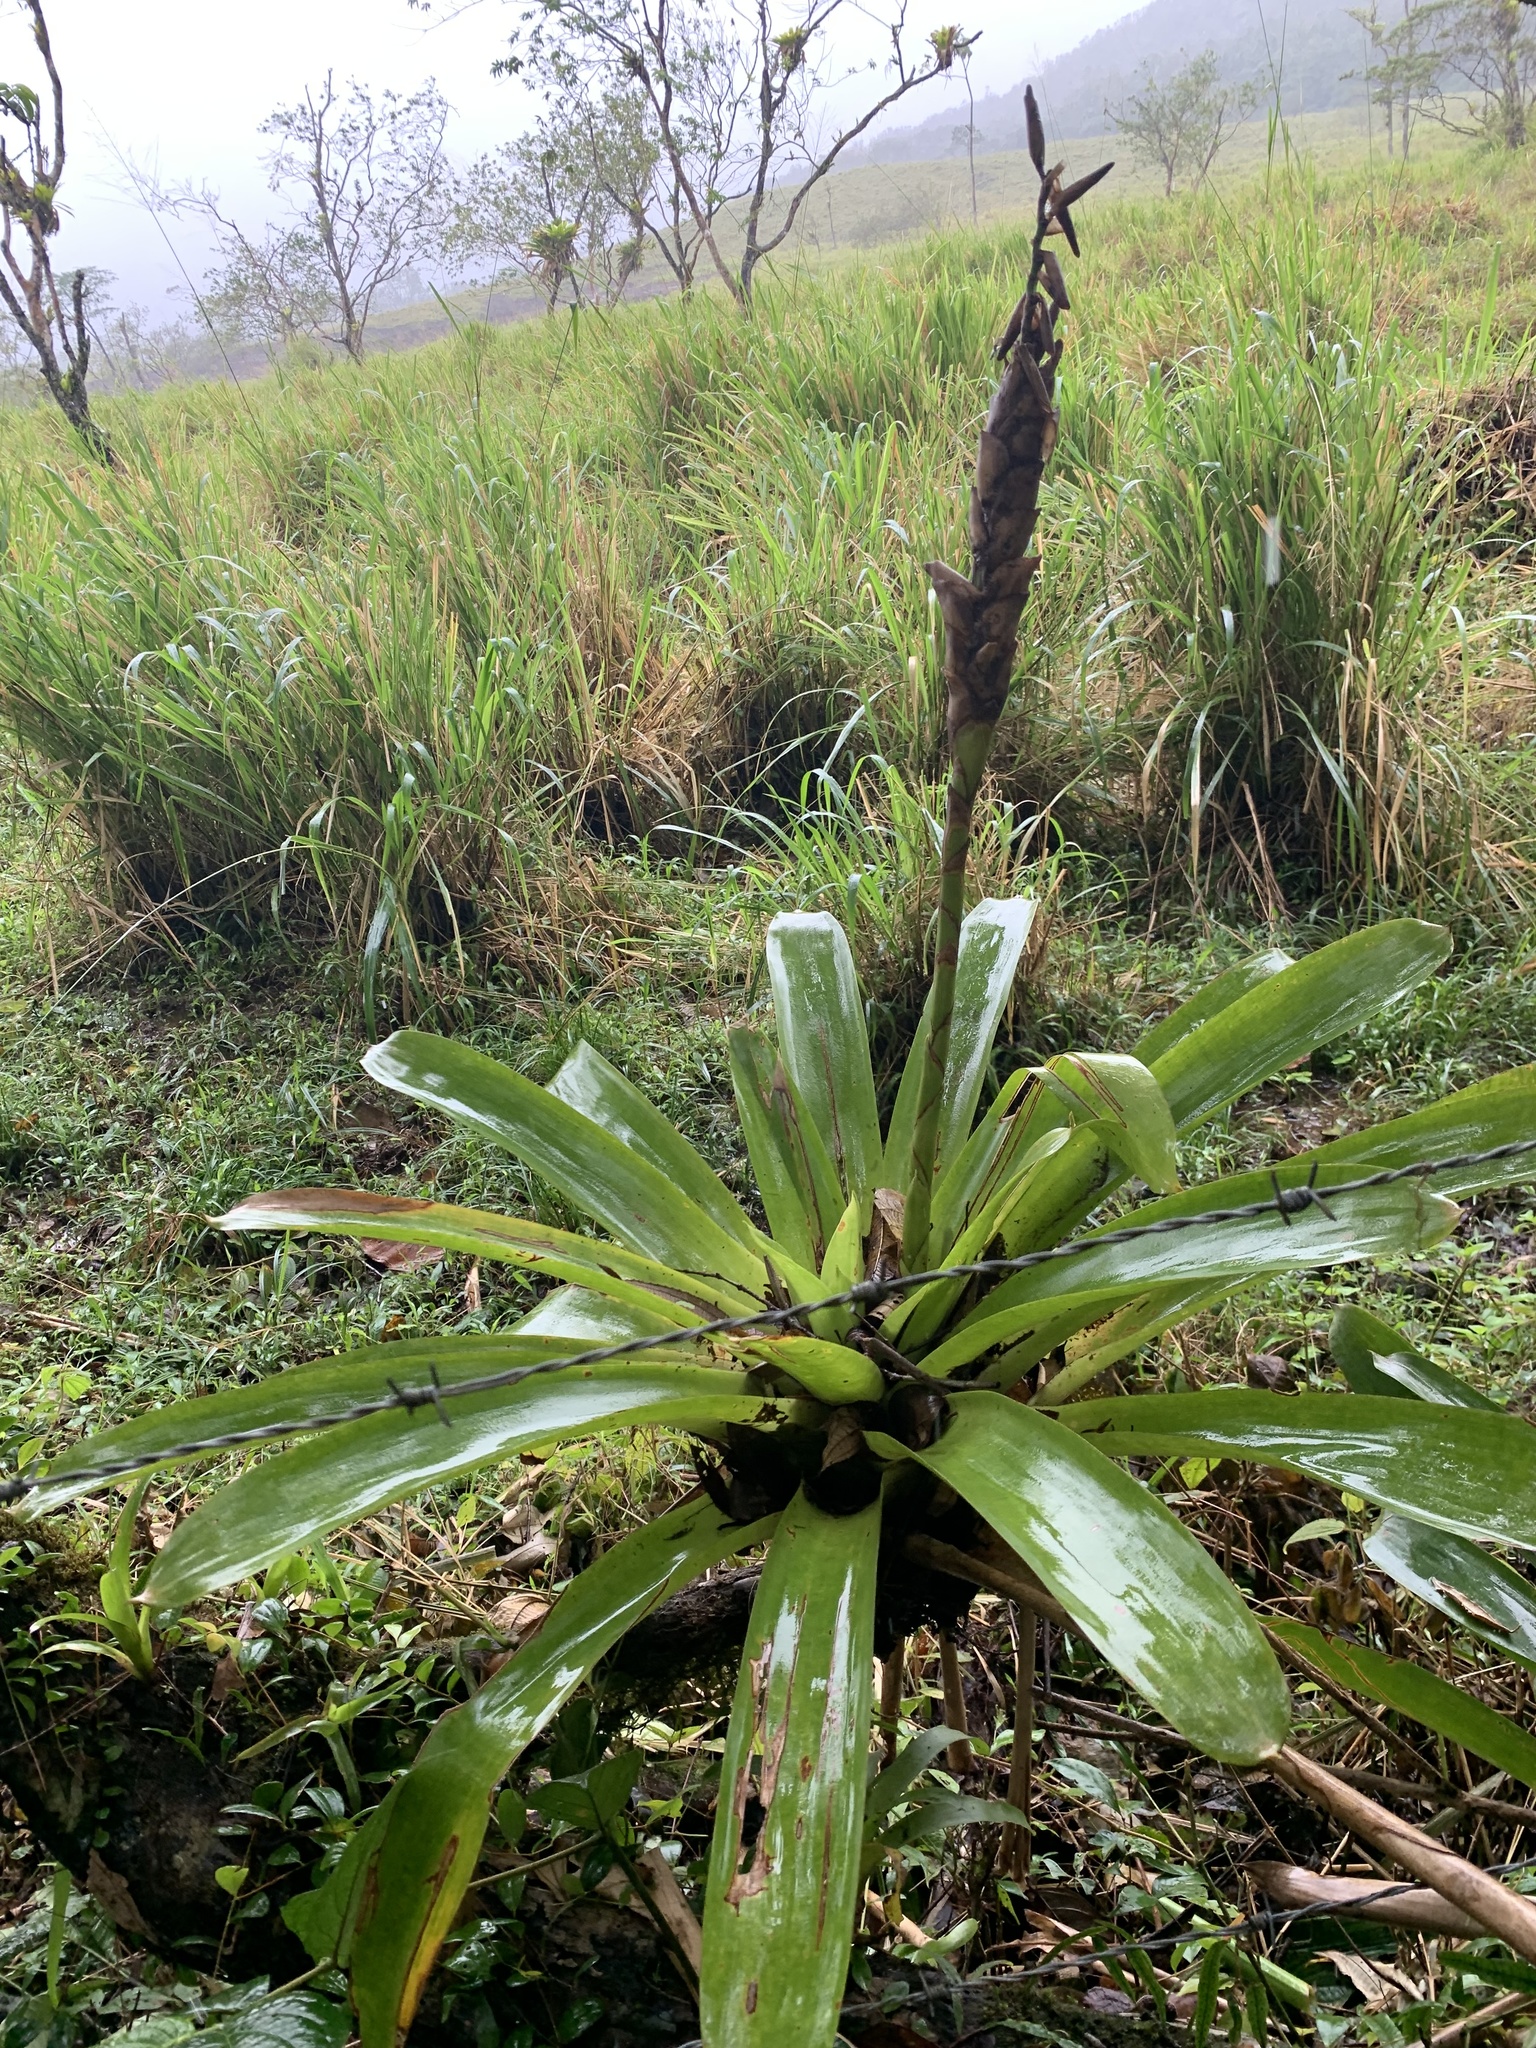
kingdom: Plantae
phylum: Tracheophyta
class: Liliopsida
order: Poales
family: Bromeliaceae
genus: Werauhia
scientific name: Werauhia gladioliflora
